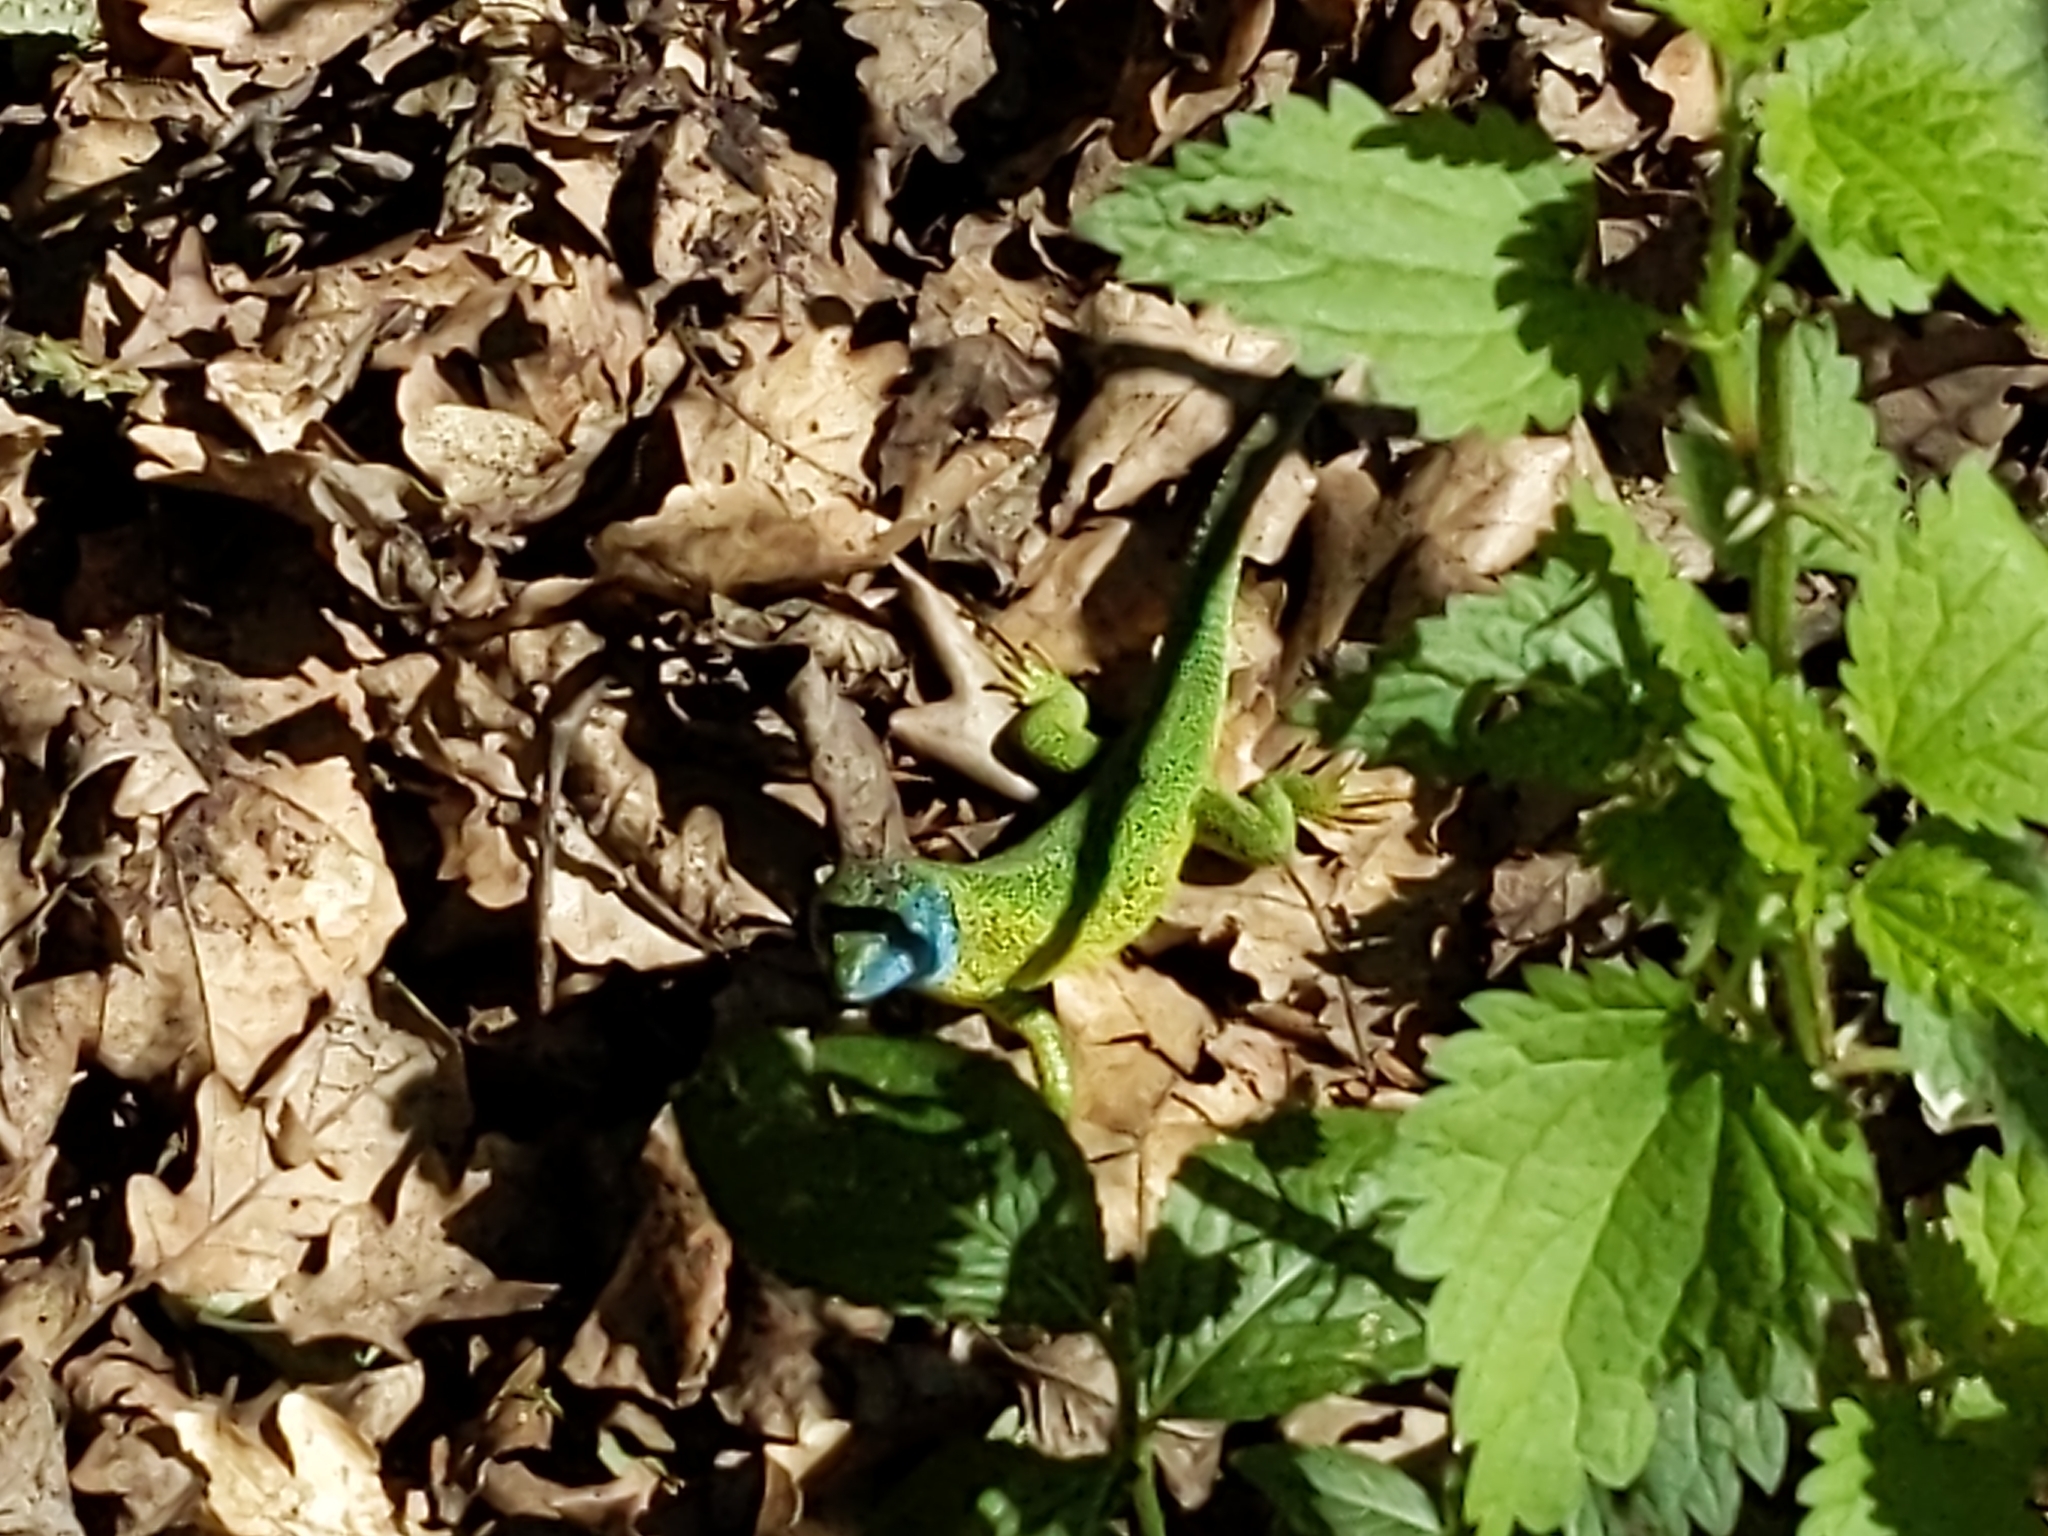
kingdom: Animalia
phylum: Chordata
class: Squamata
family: Lacertidae
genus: Lacerta
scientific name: Lacerta viridis
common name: European green lizard
